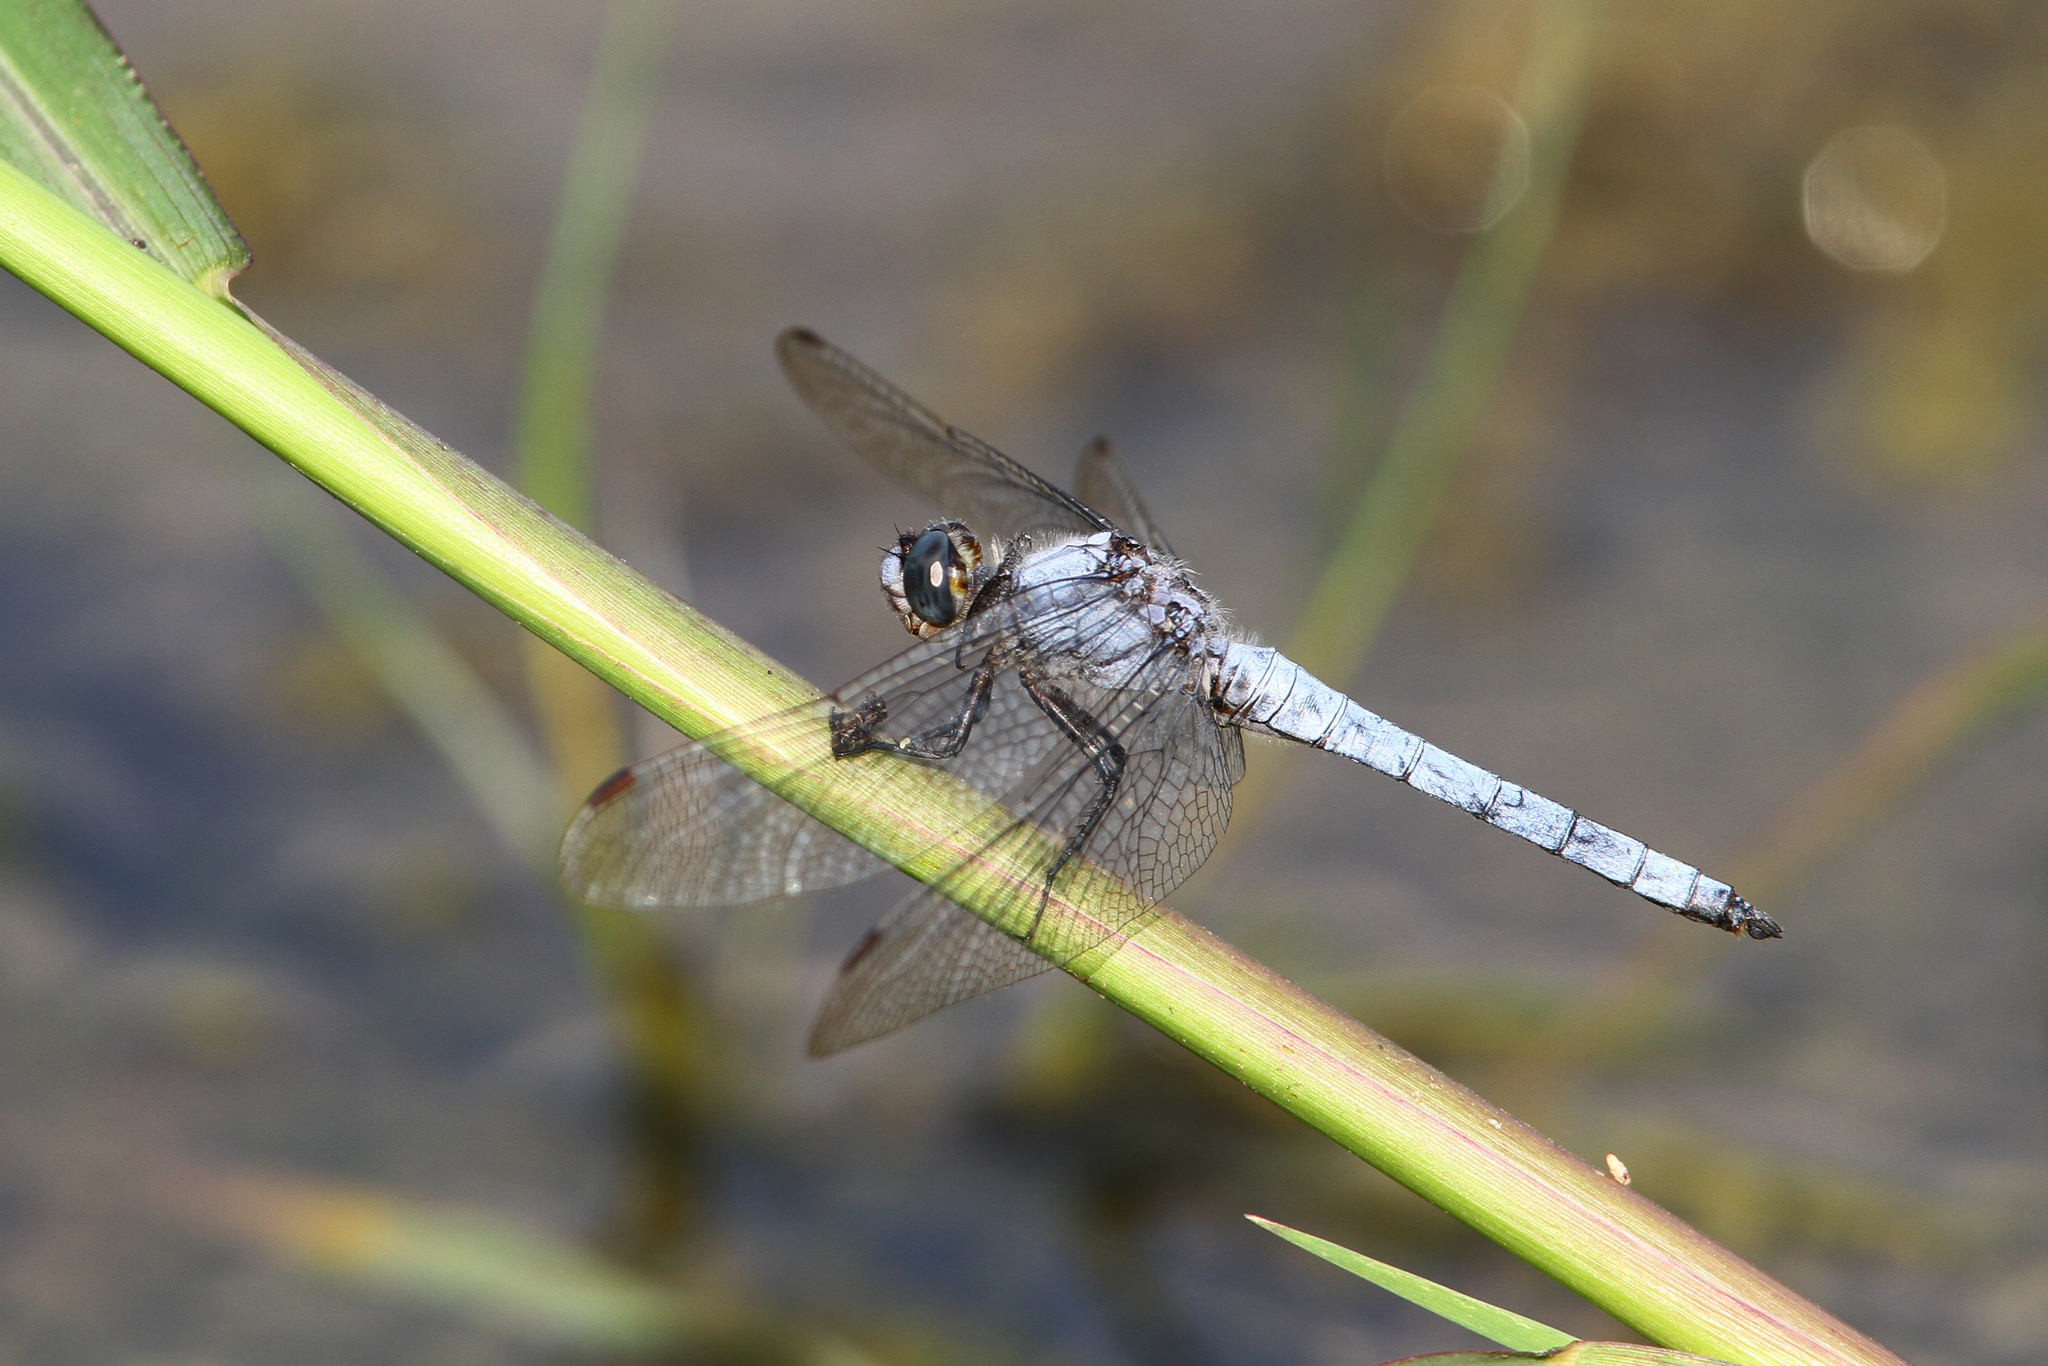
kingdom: Animalia
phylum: Arthropoda
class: Insecta
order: Odonata
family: Libellulidae
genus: Orthetrum
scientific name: Orthetrum brunneum
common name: Southern skimmer
